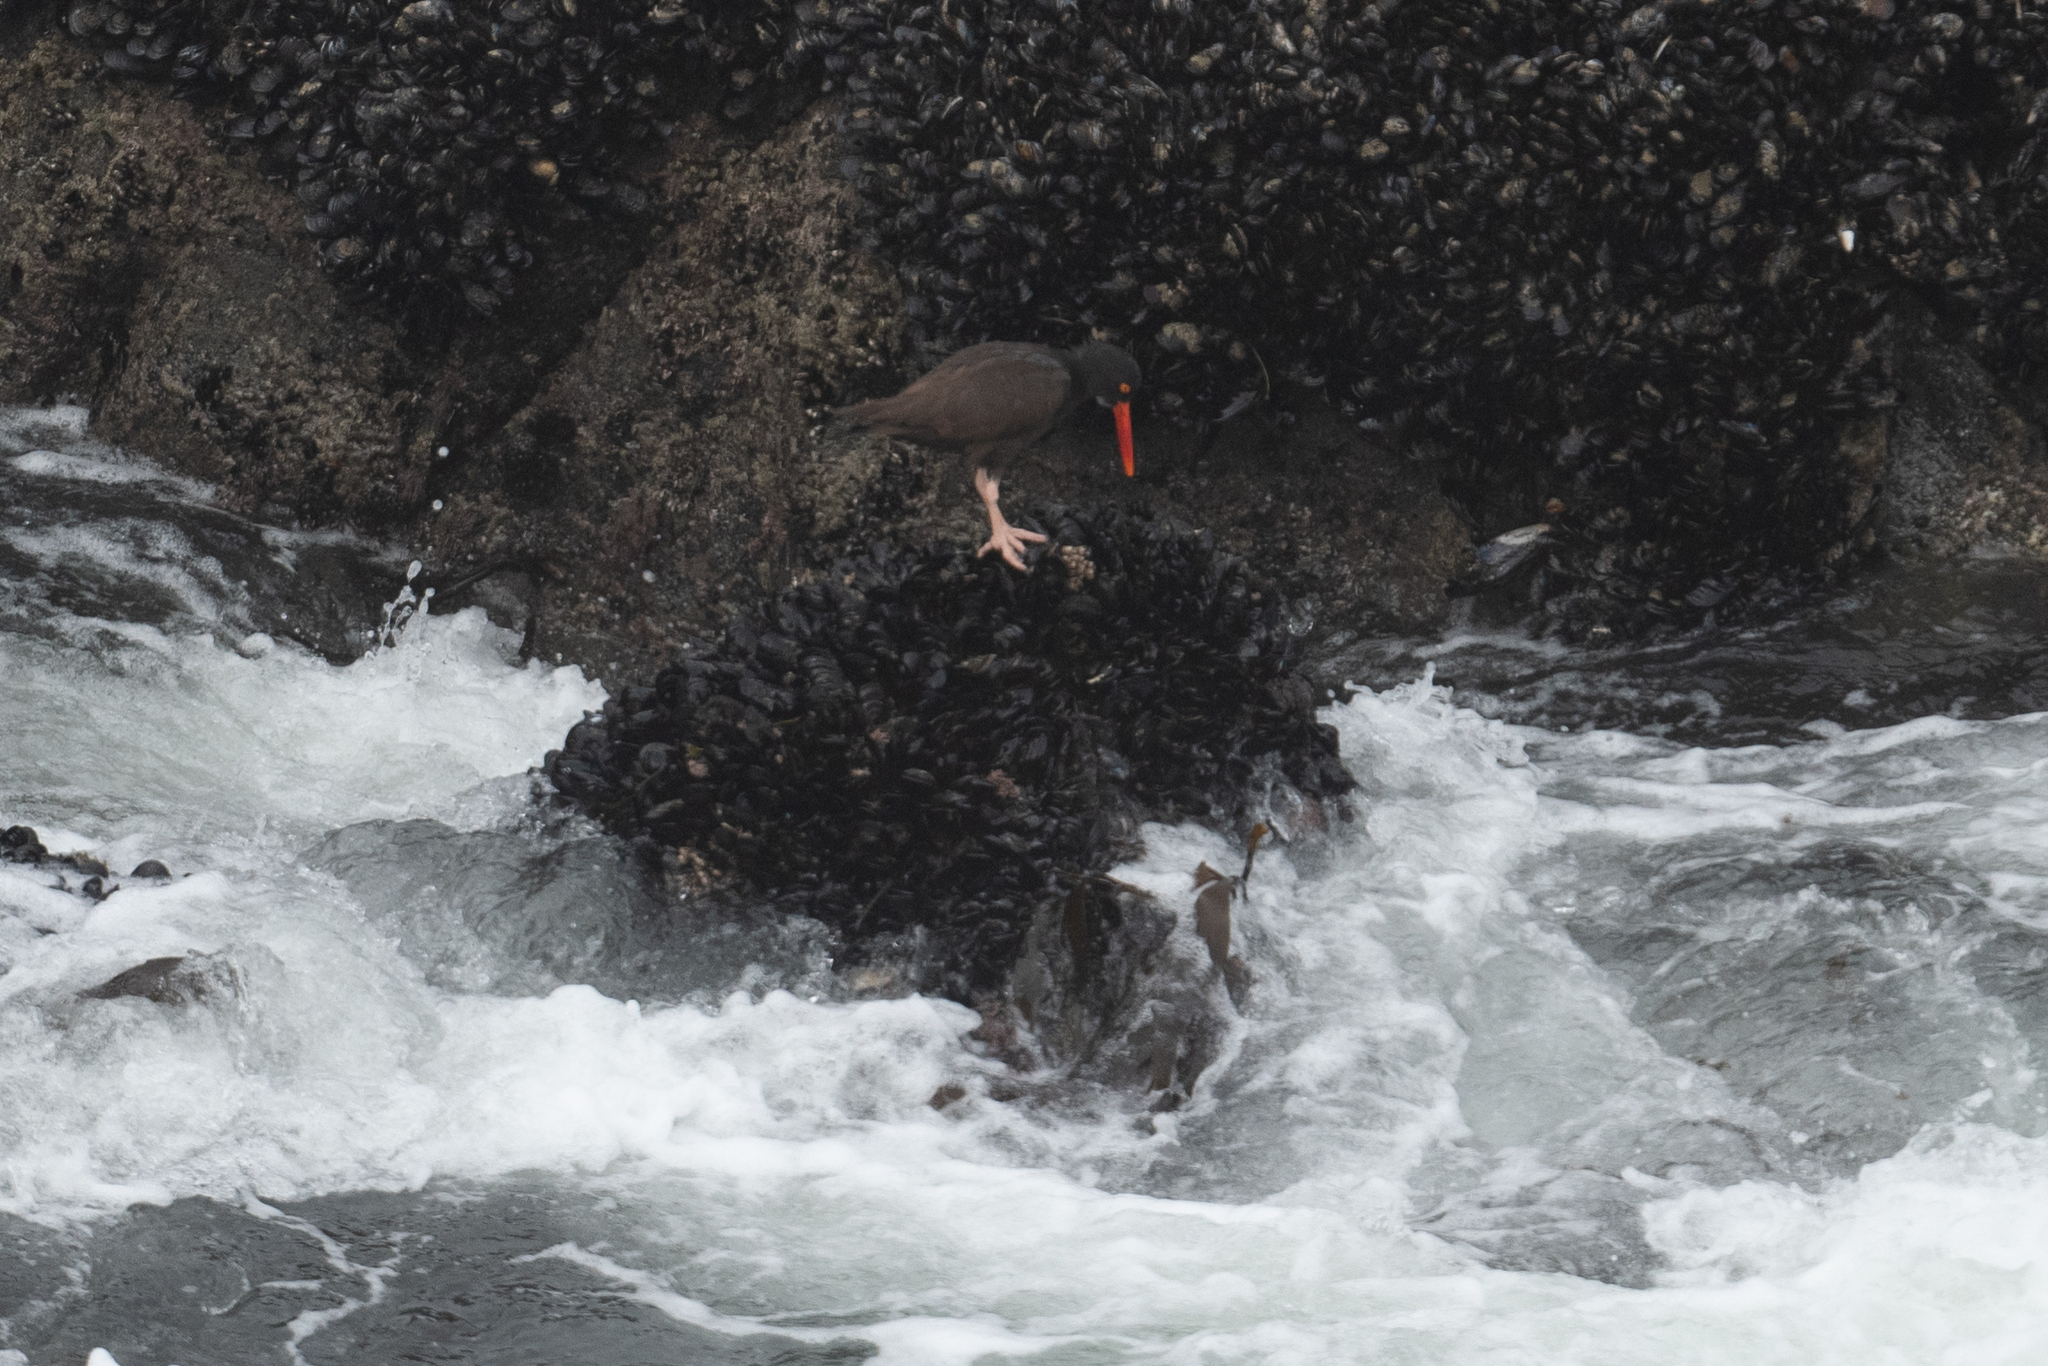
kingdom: Animalia
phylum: Chordata
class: Aves
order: Charadriiformes
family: Haematopodidae
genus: Haematopus
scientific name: Haematopus bachmani
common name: Black oystercatcher
